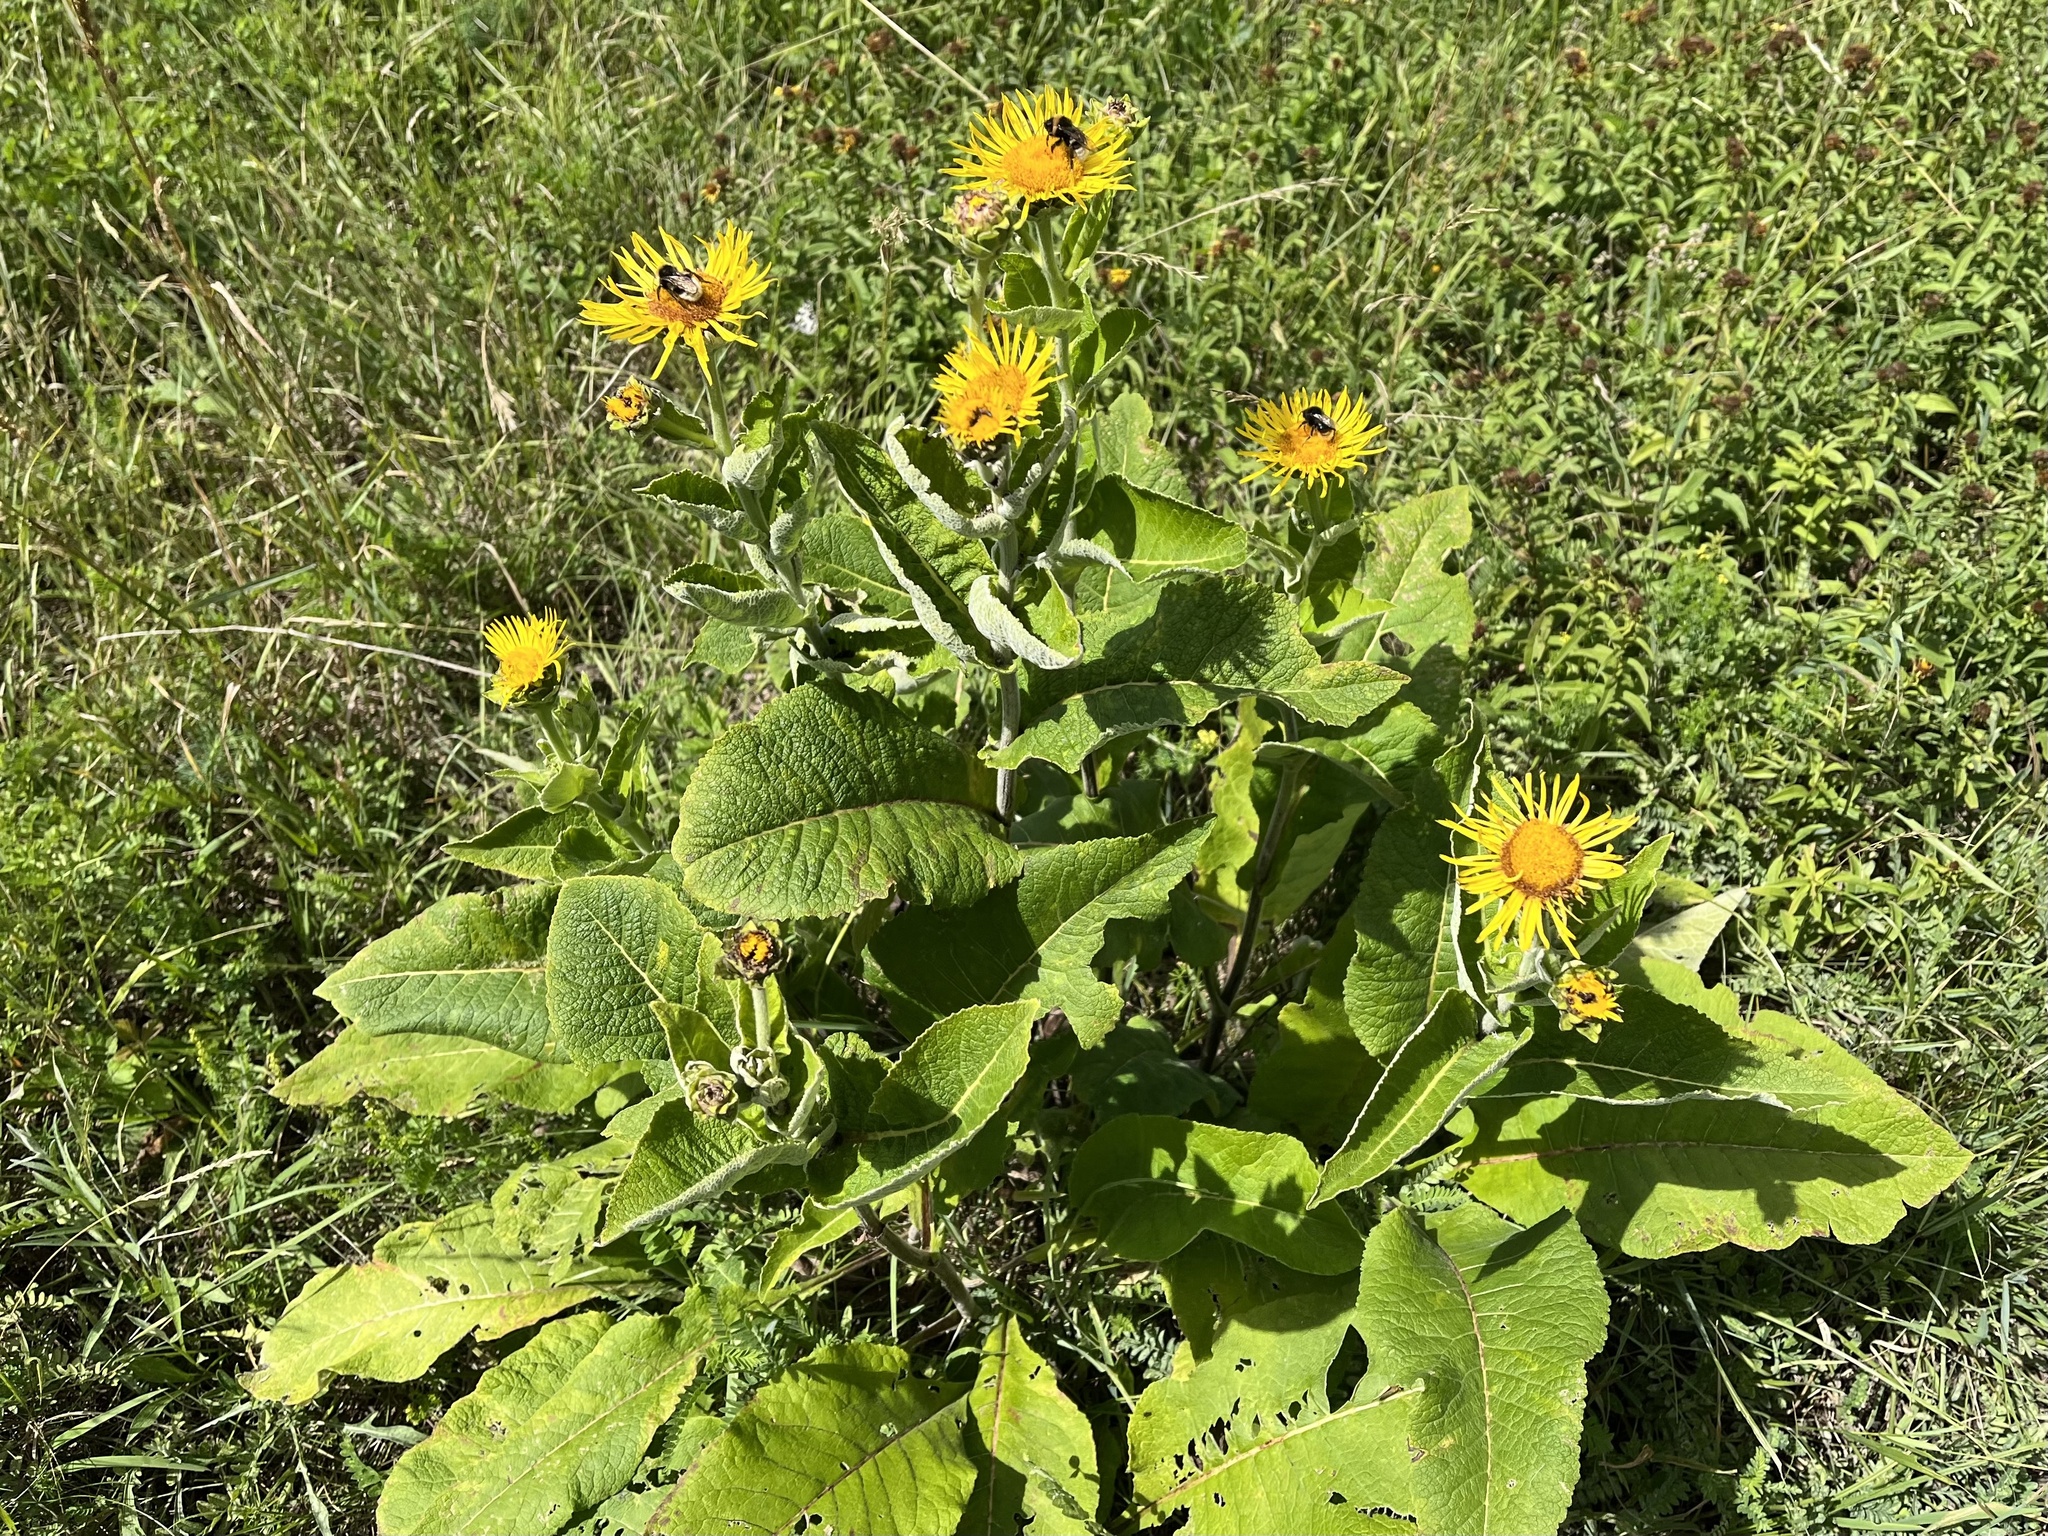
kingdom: Plantae
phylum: Tracheophyta
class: Magnoliopsida
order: Asterales
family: Asteraceae
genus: Inula
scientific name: Inula helenium
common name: Elecampane
